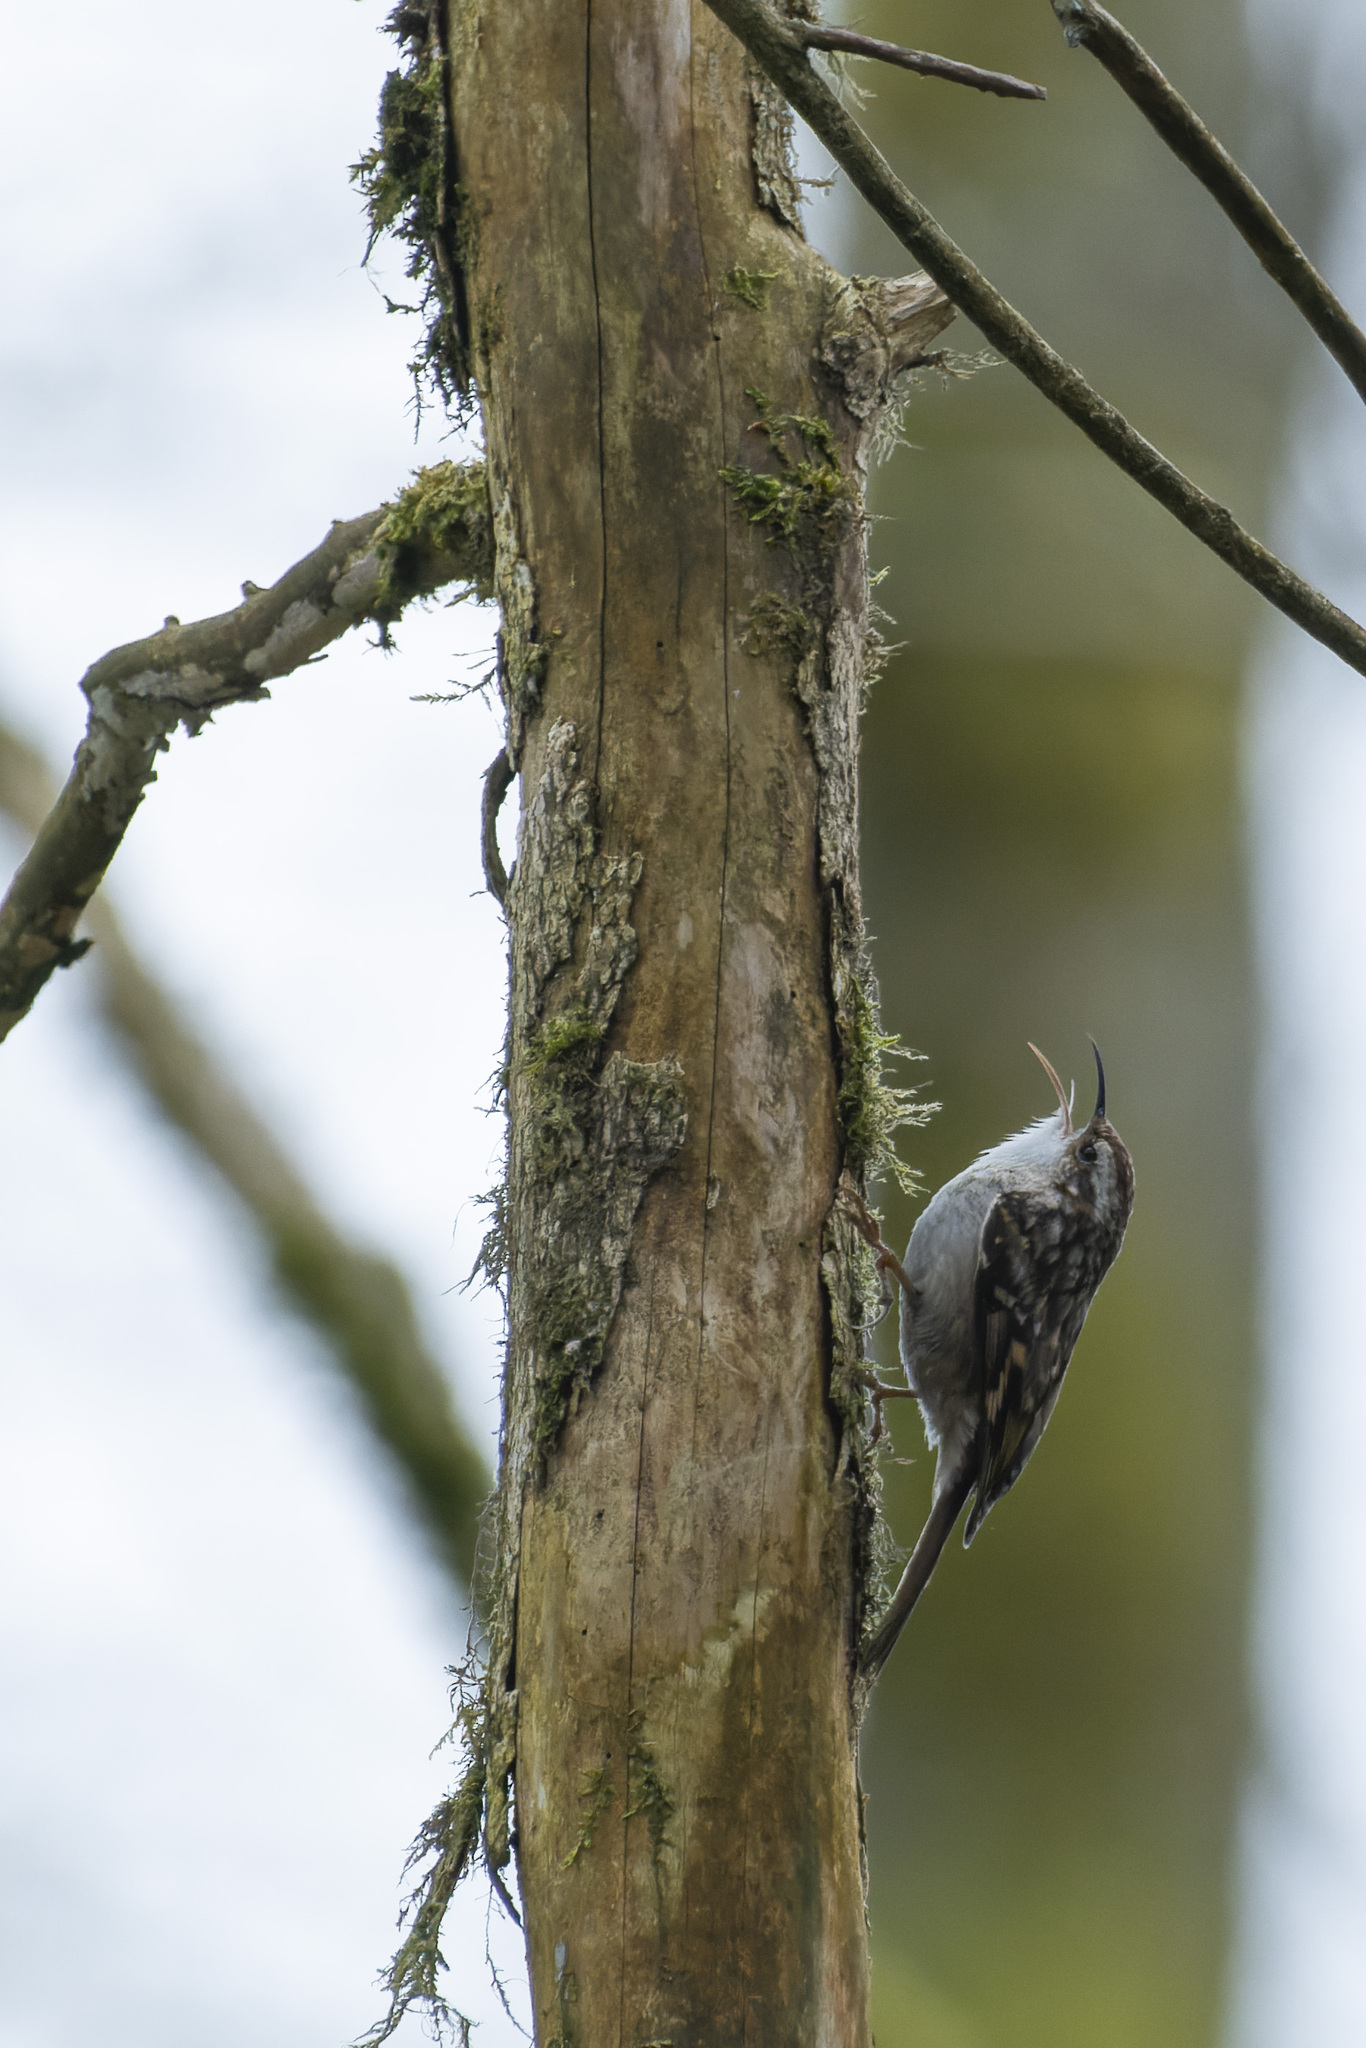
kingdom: Animalia
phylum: Chordata
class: Aves
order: Passeriformes
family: Certhiidae
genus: Certhia
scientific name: Certhia brachydactyla
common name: Short-toed treecreeper
